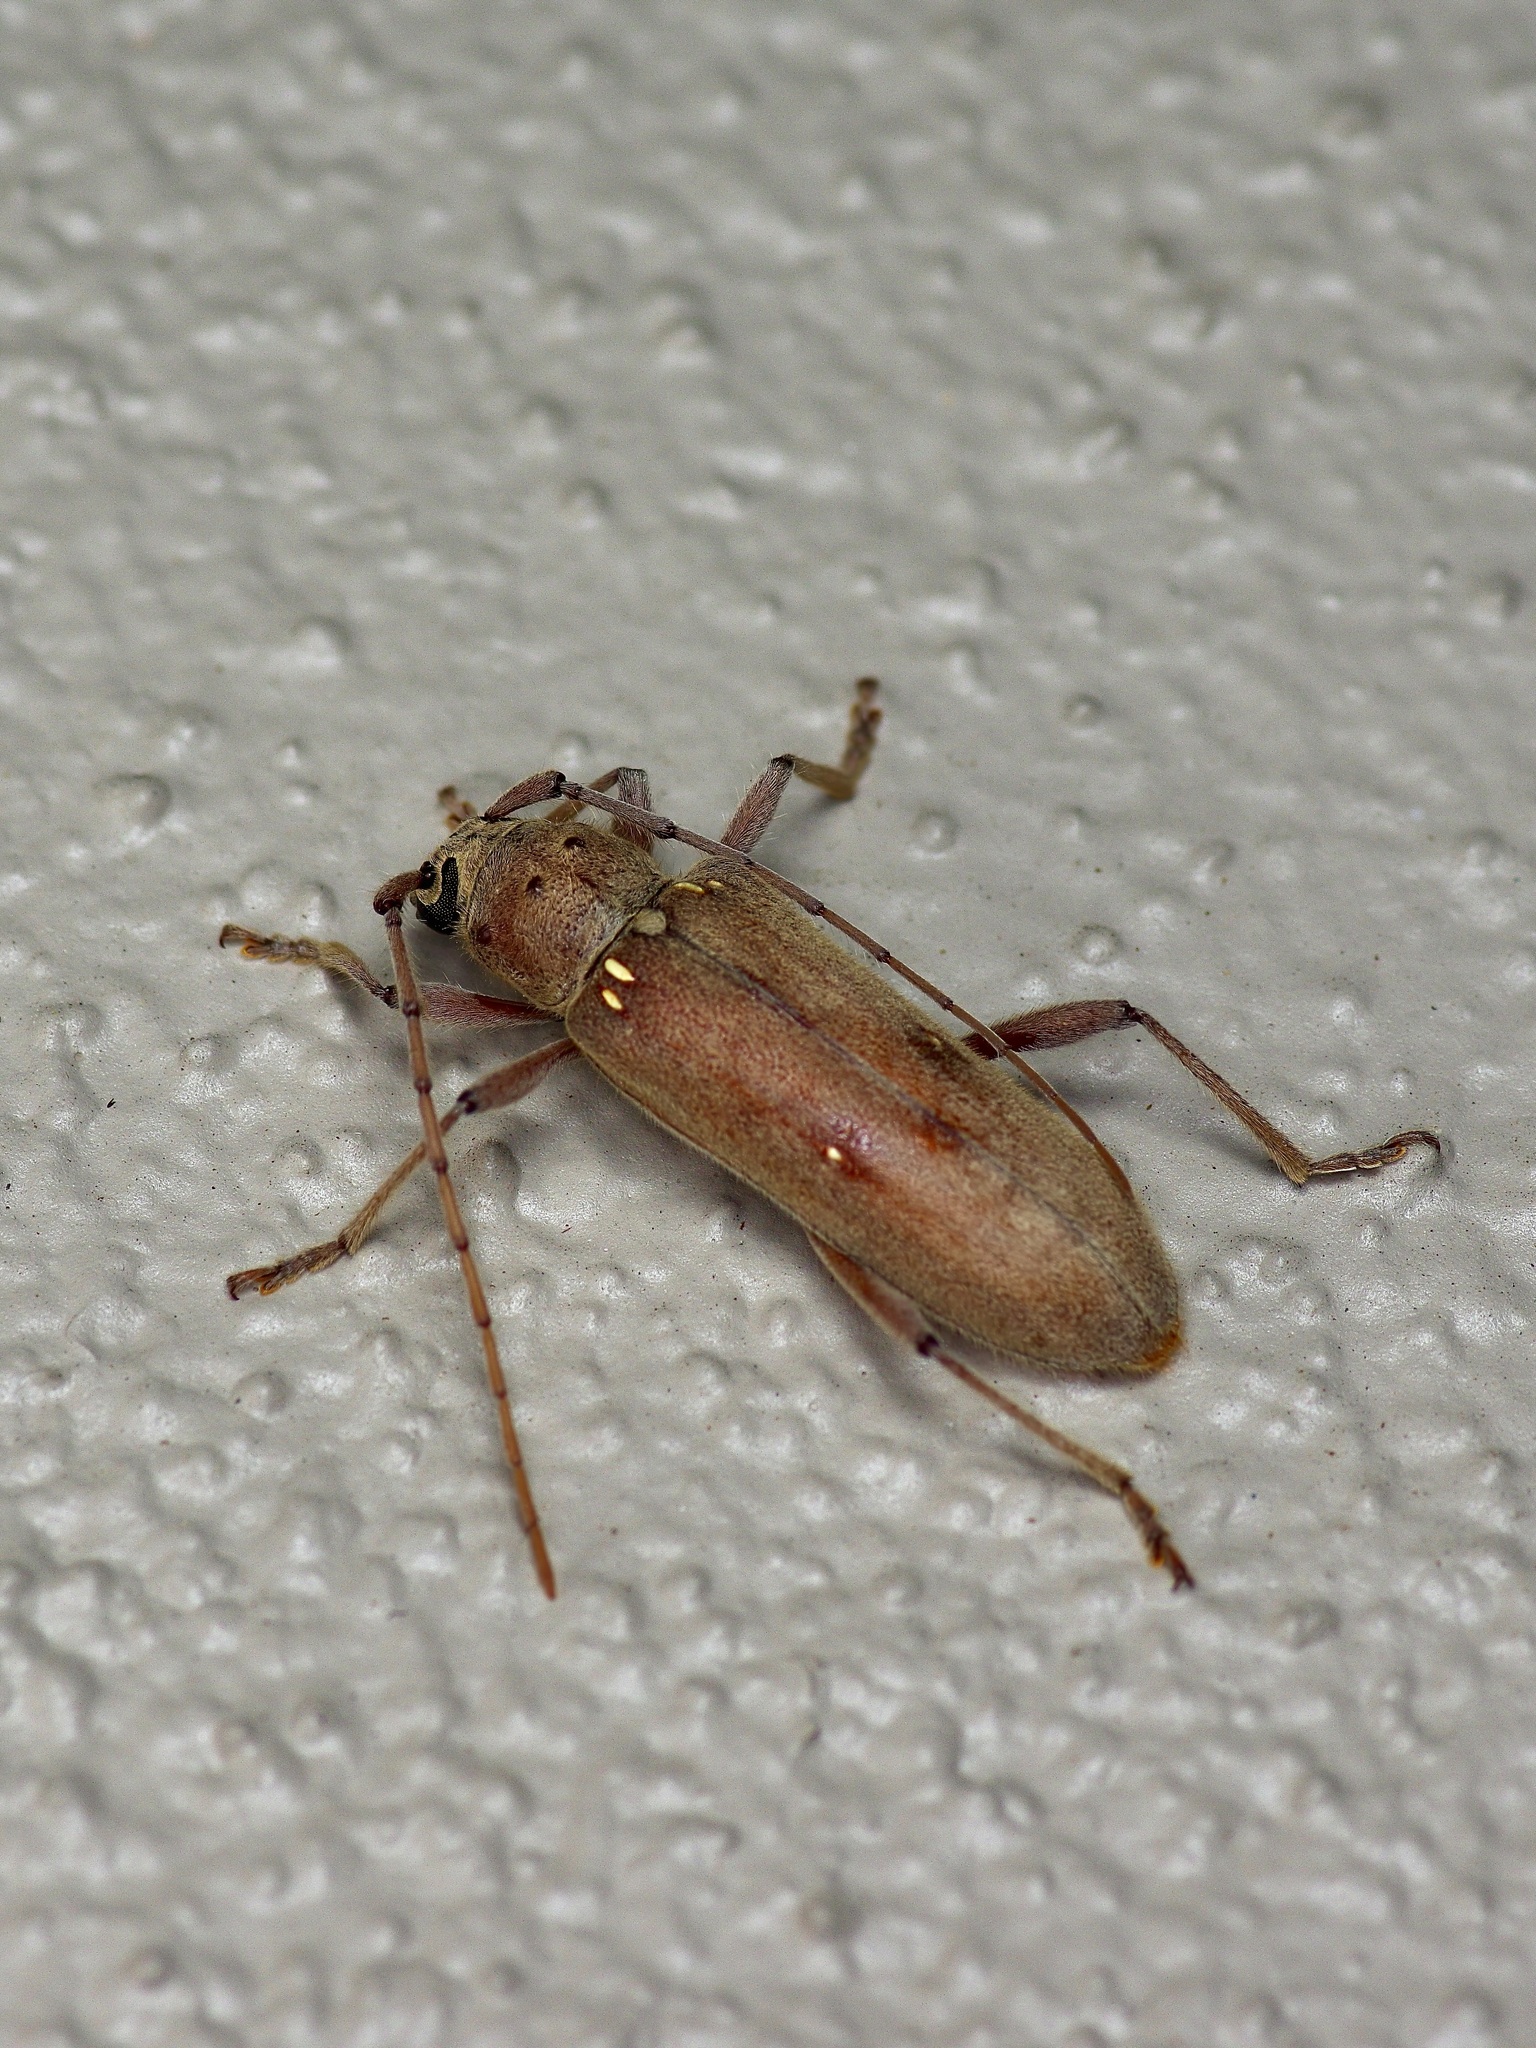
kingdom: Animalia
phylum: Arthropoda
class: Insecta
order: Coleoptera
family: Cerambycidae
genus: Eburia
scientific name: Eburia mutica
